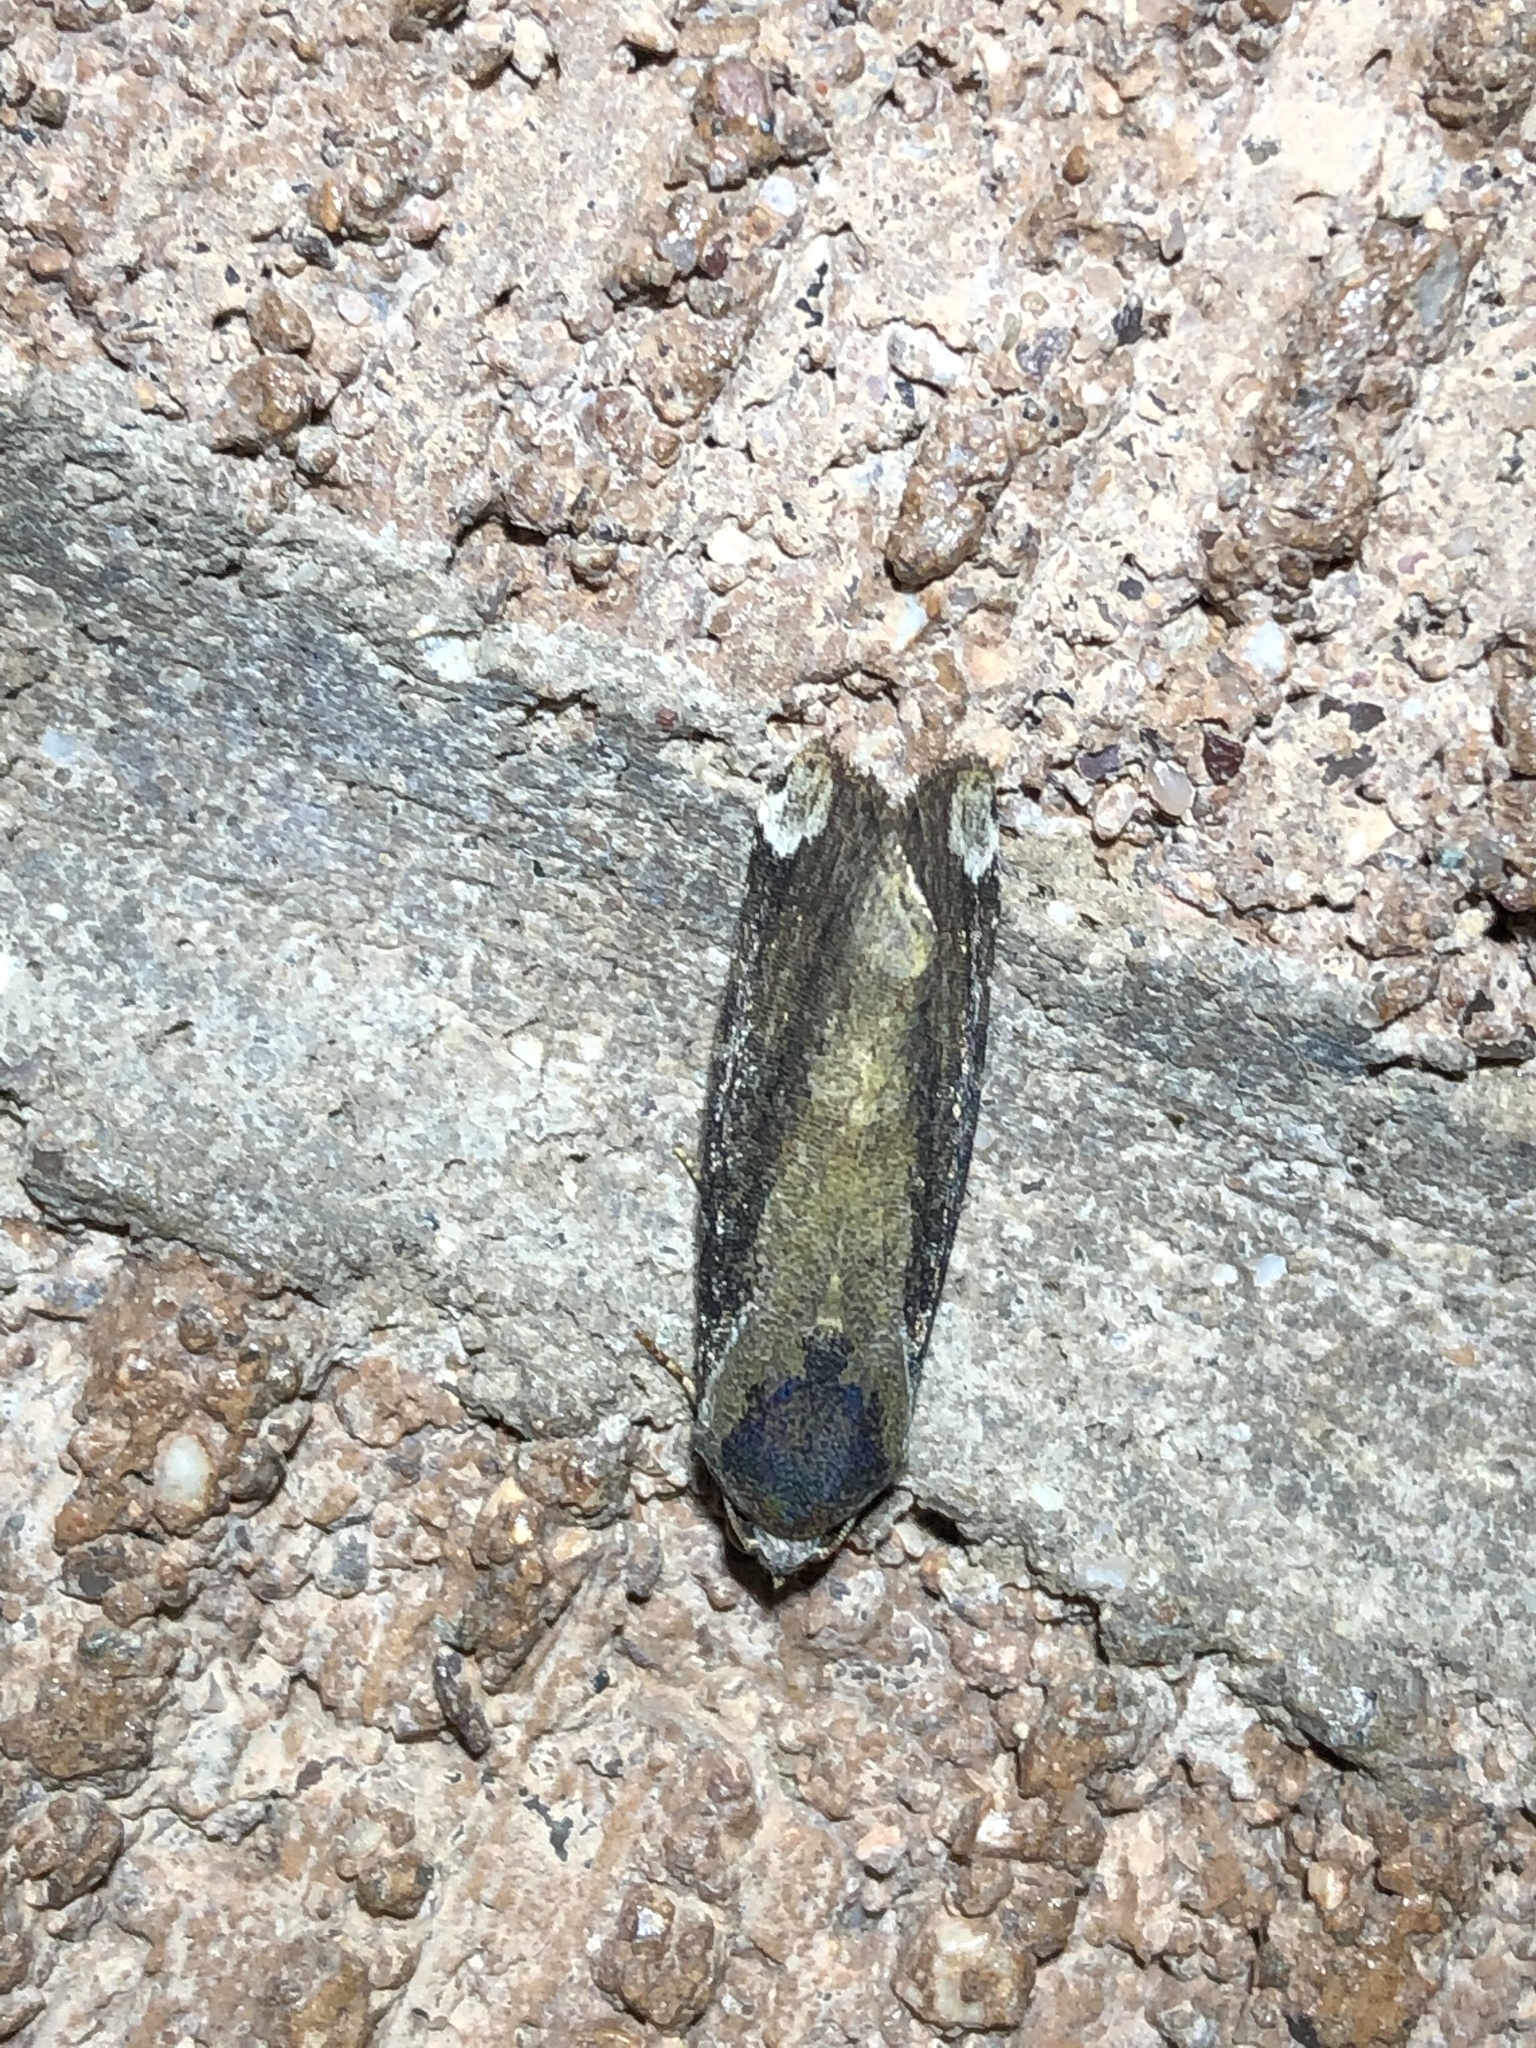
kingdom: Animalia
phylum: Arthropoda
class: Insecta
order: Lepidoptera
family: Noctuidae
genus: Magusa
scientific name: Magusa divaricata
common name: Orb narrow-winged moth
